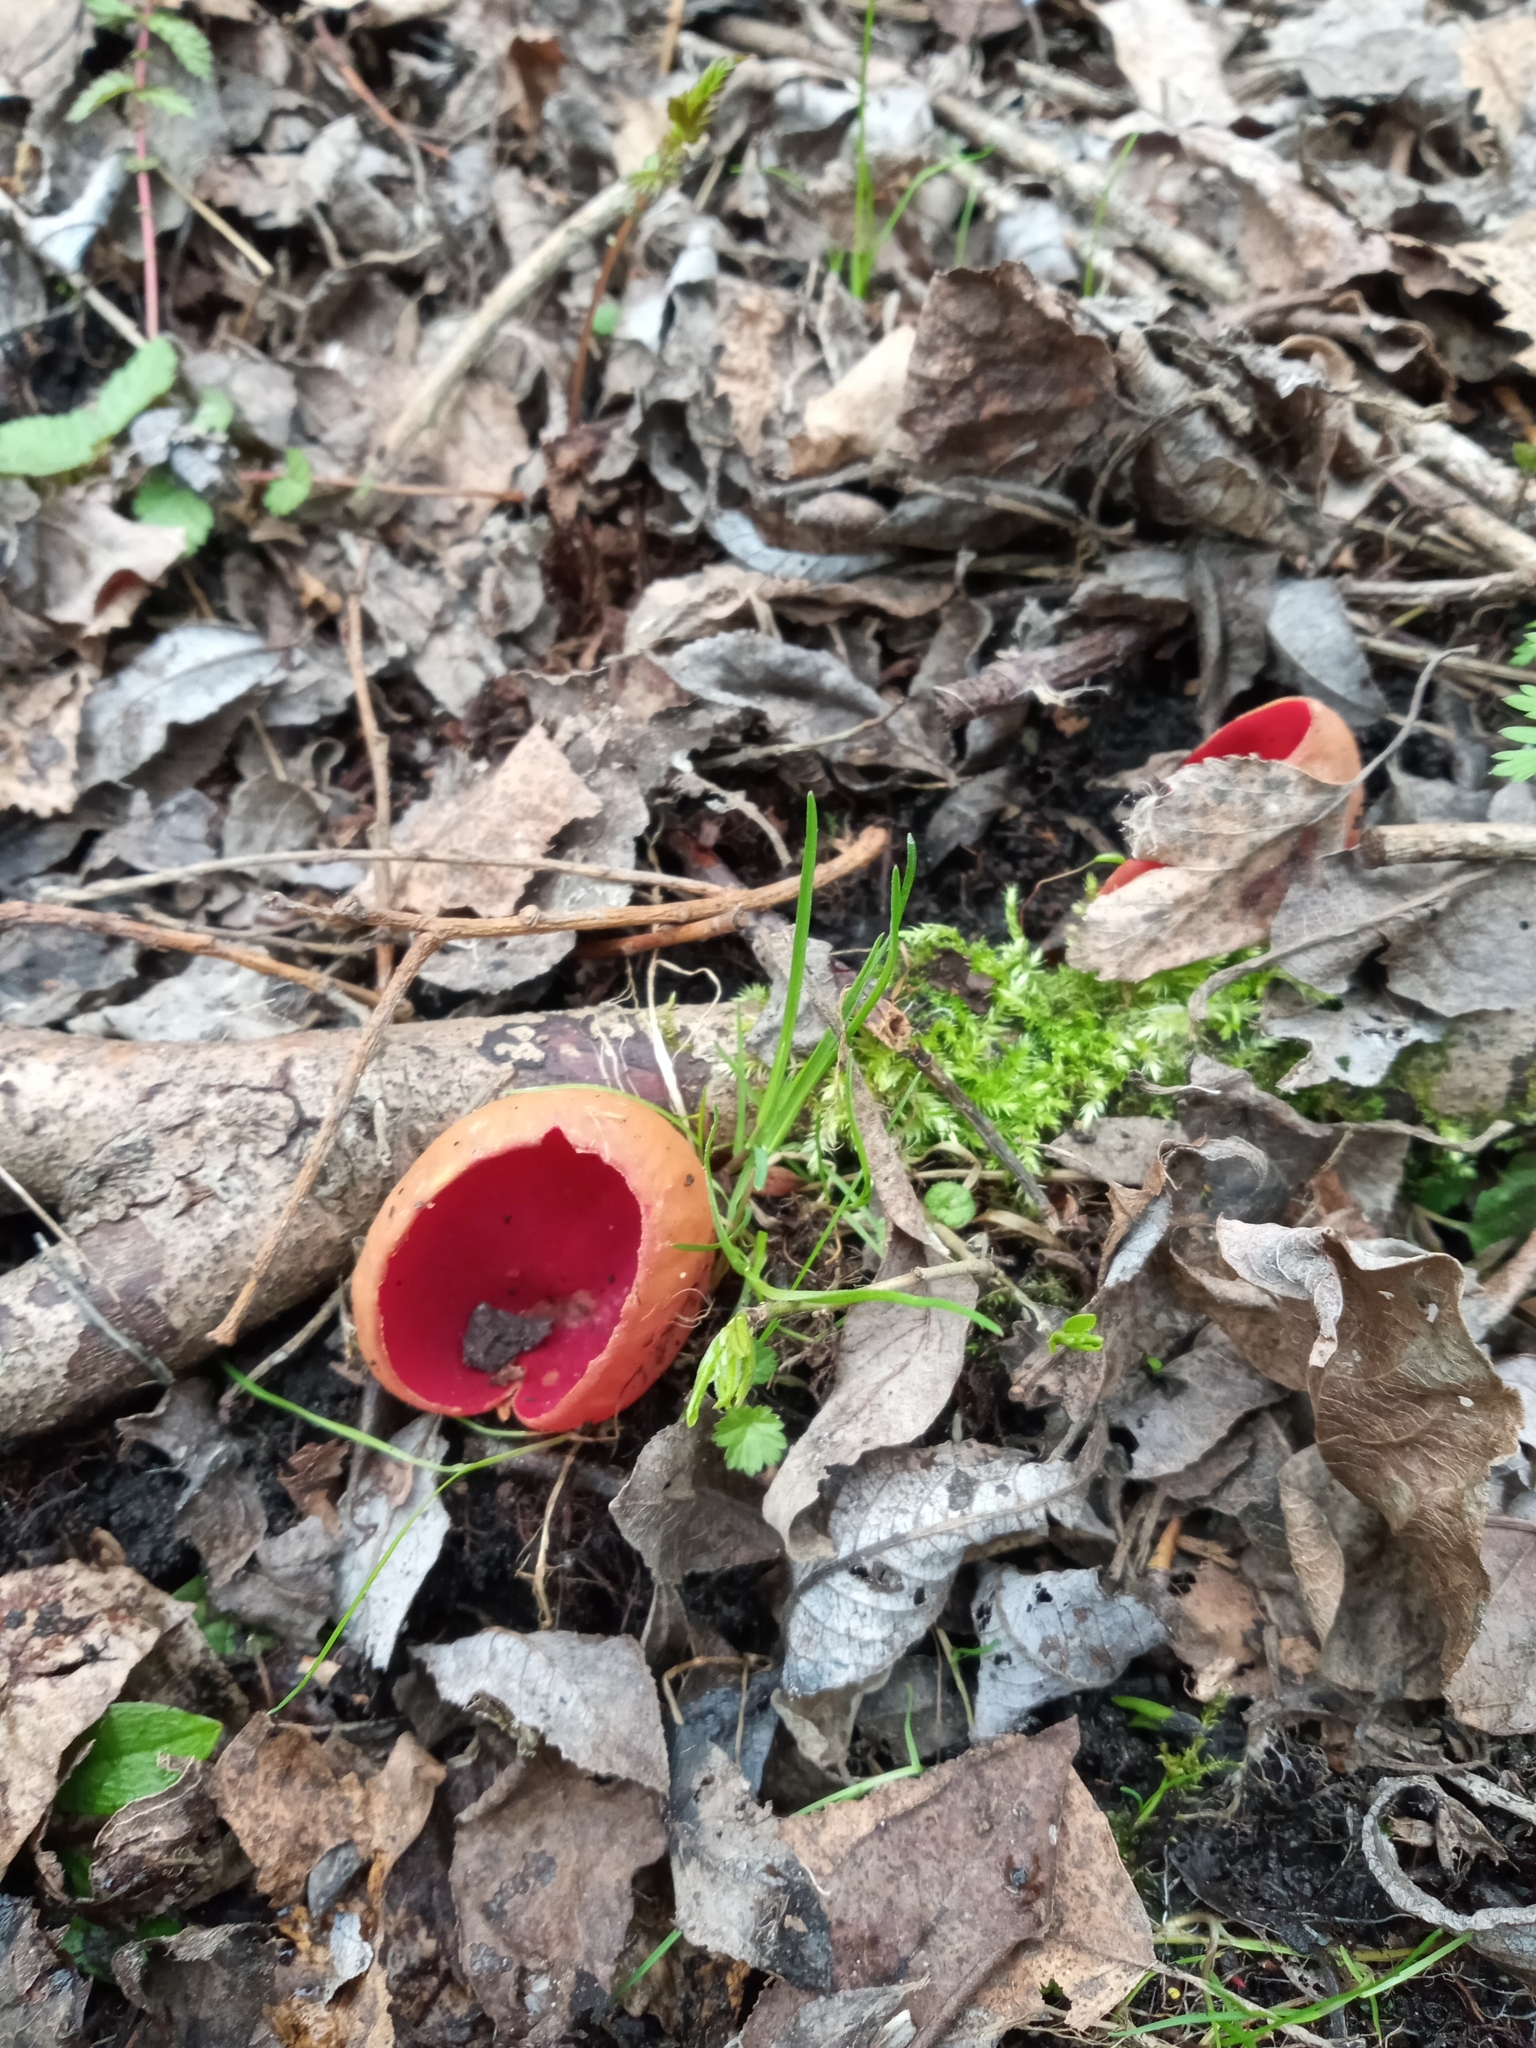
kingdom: Fungi
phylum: Ascomycota
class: Pezizomycetes
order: Pezizales
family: Sarcoscyphaceae
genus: Sarcoscypha
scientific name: Sarcoscypha austriaca
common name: Scarlet elfcup
